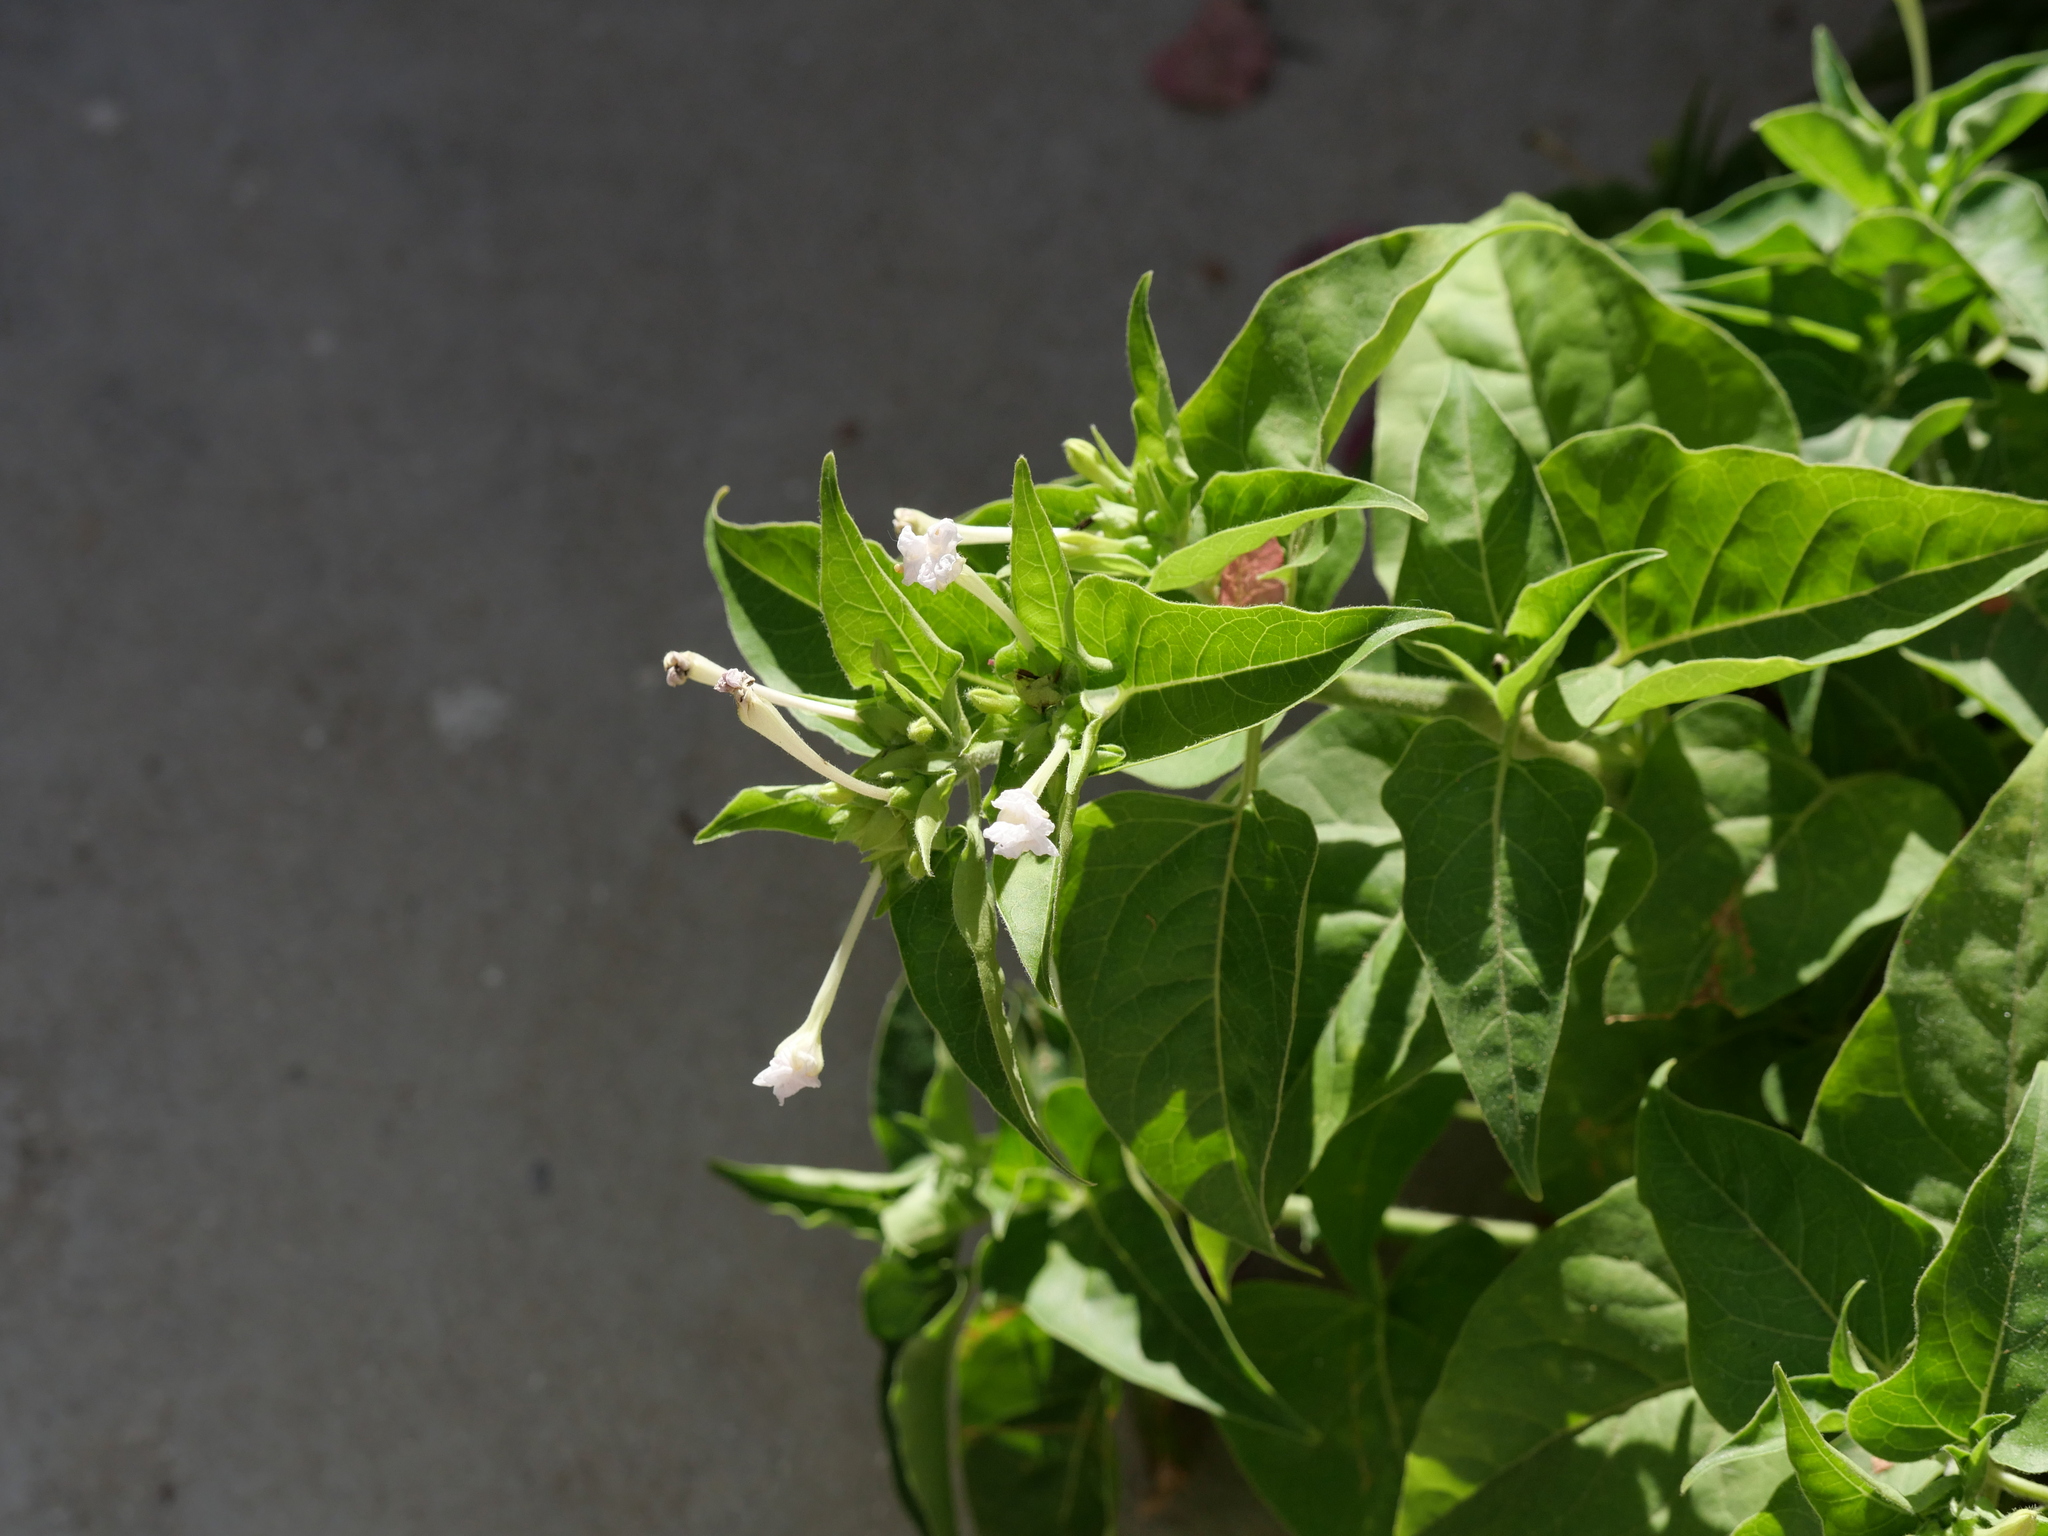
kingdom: Plantae
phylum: Tracheophyta
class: Magnoliopsida
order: Caryophyllales
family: Nyctaginaceae
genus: Mirabilis
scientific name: Mirabilis jalapa
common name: Marvel-of-peru
